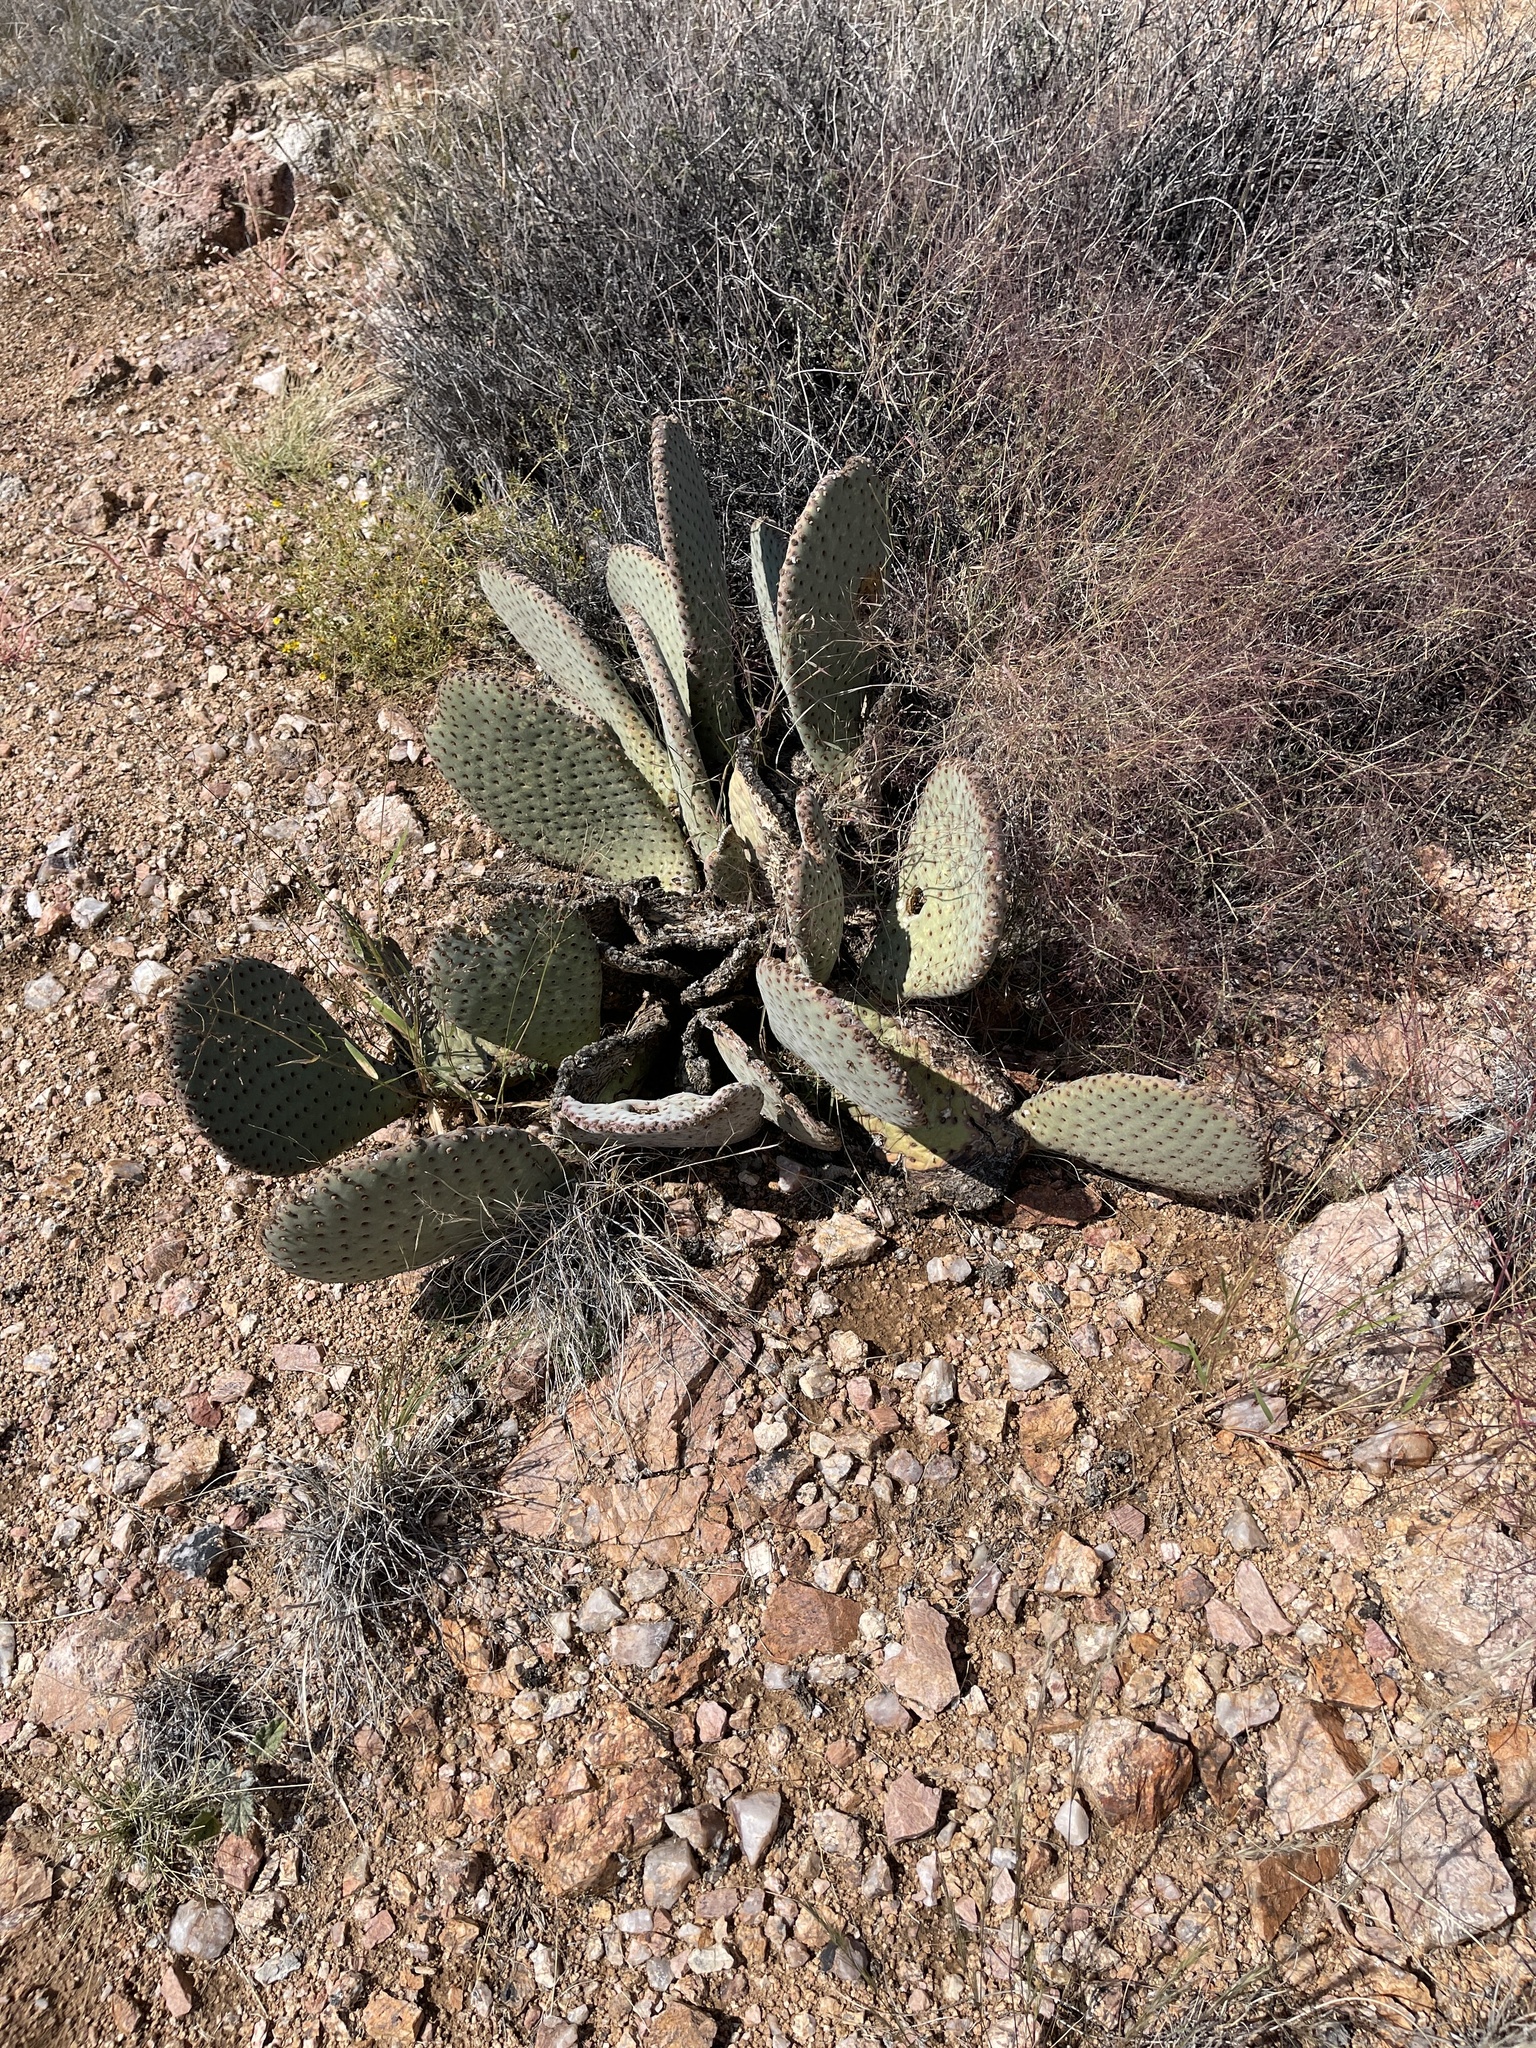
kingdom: Plantae
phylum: Tracheophyta
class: Magnoliopsida
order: Caryophyllales
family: Cactaceae
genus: Opuntia
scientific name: Opuntia basilaris
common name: Beavertail prickly-pear
